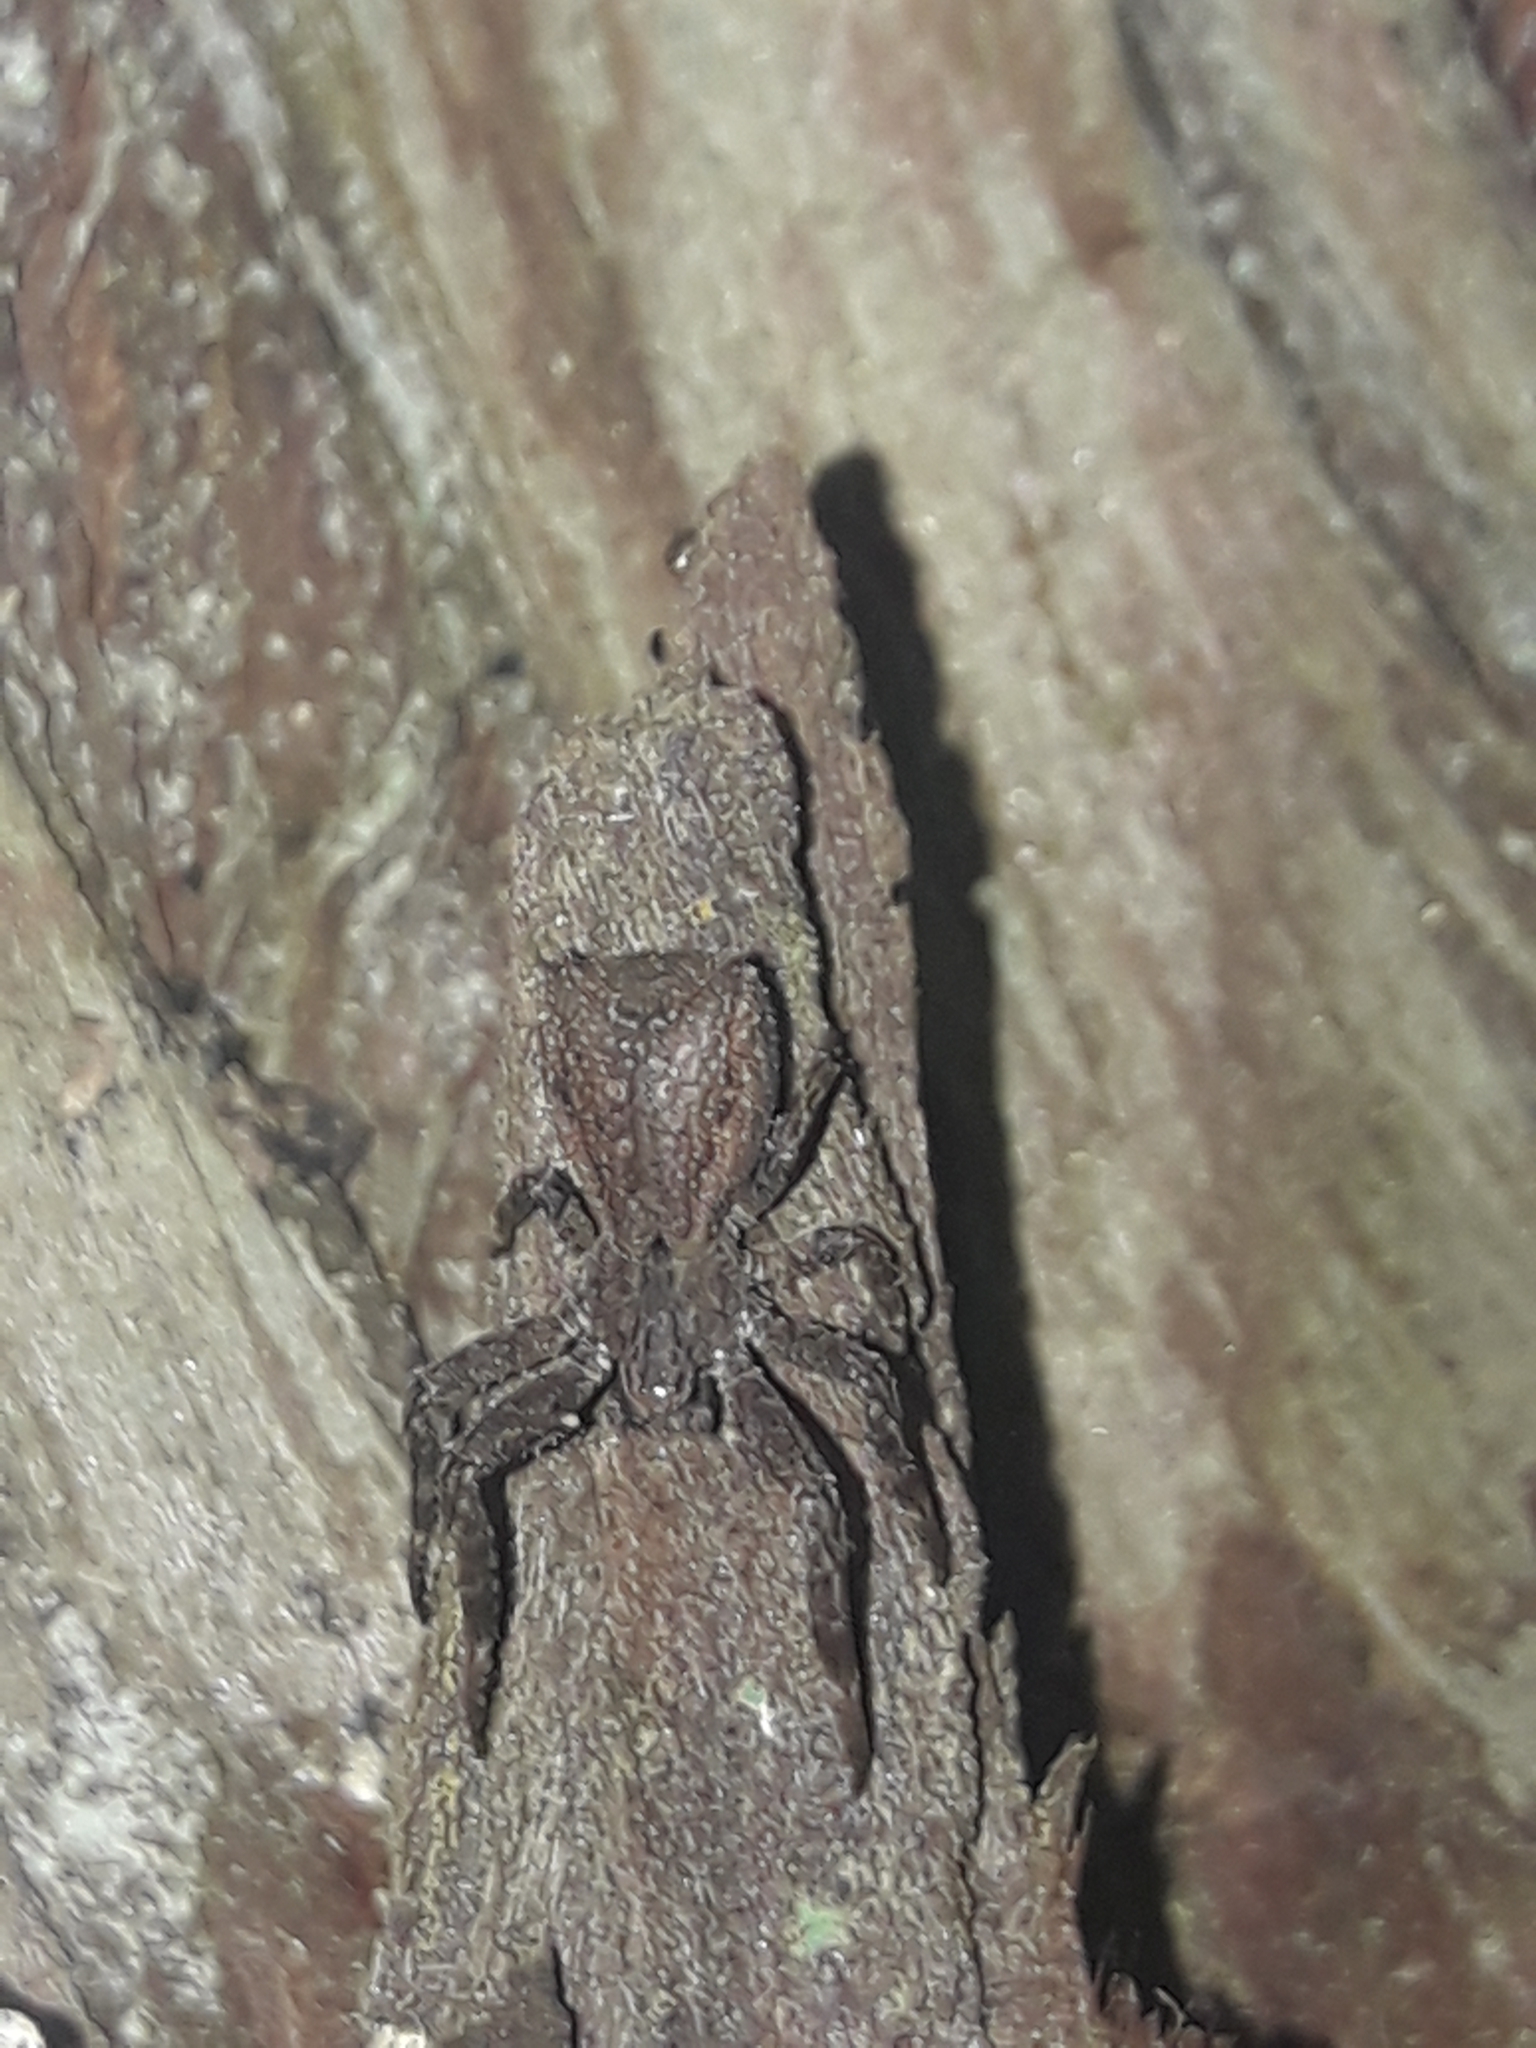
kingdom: Animalia
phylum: Arthropoda
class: Arachnida
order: Araneae
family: Thomisidae
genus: Sidymella
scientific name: Sidymella angularis
